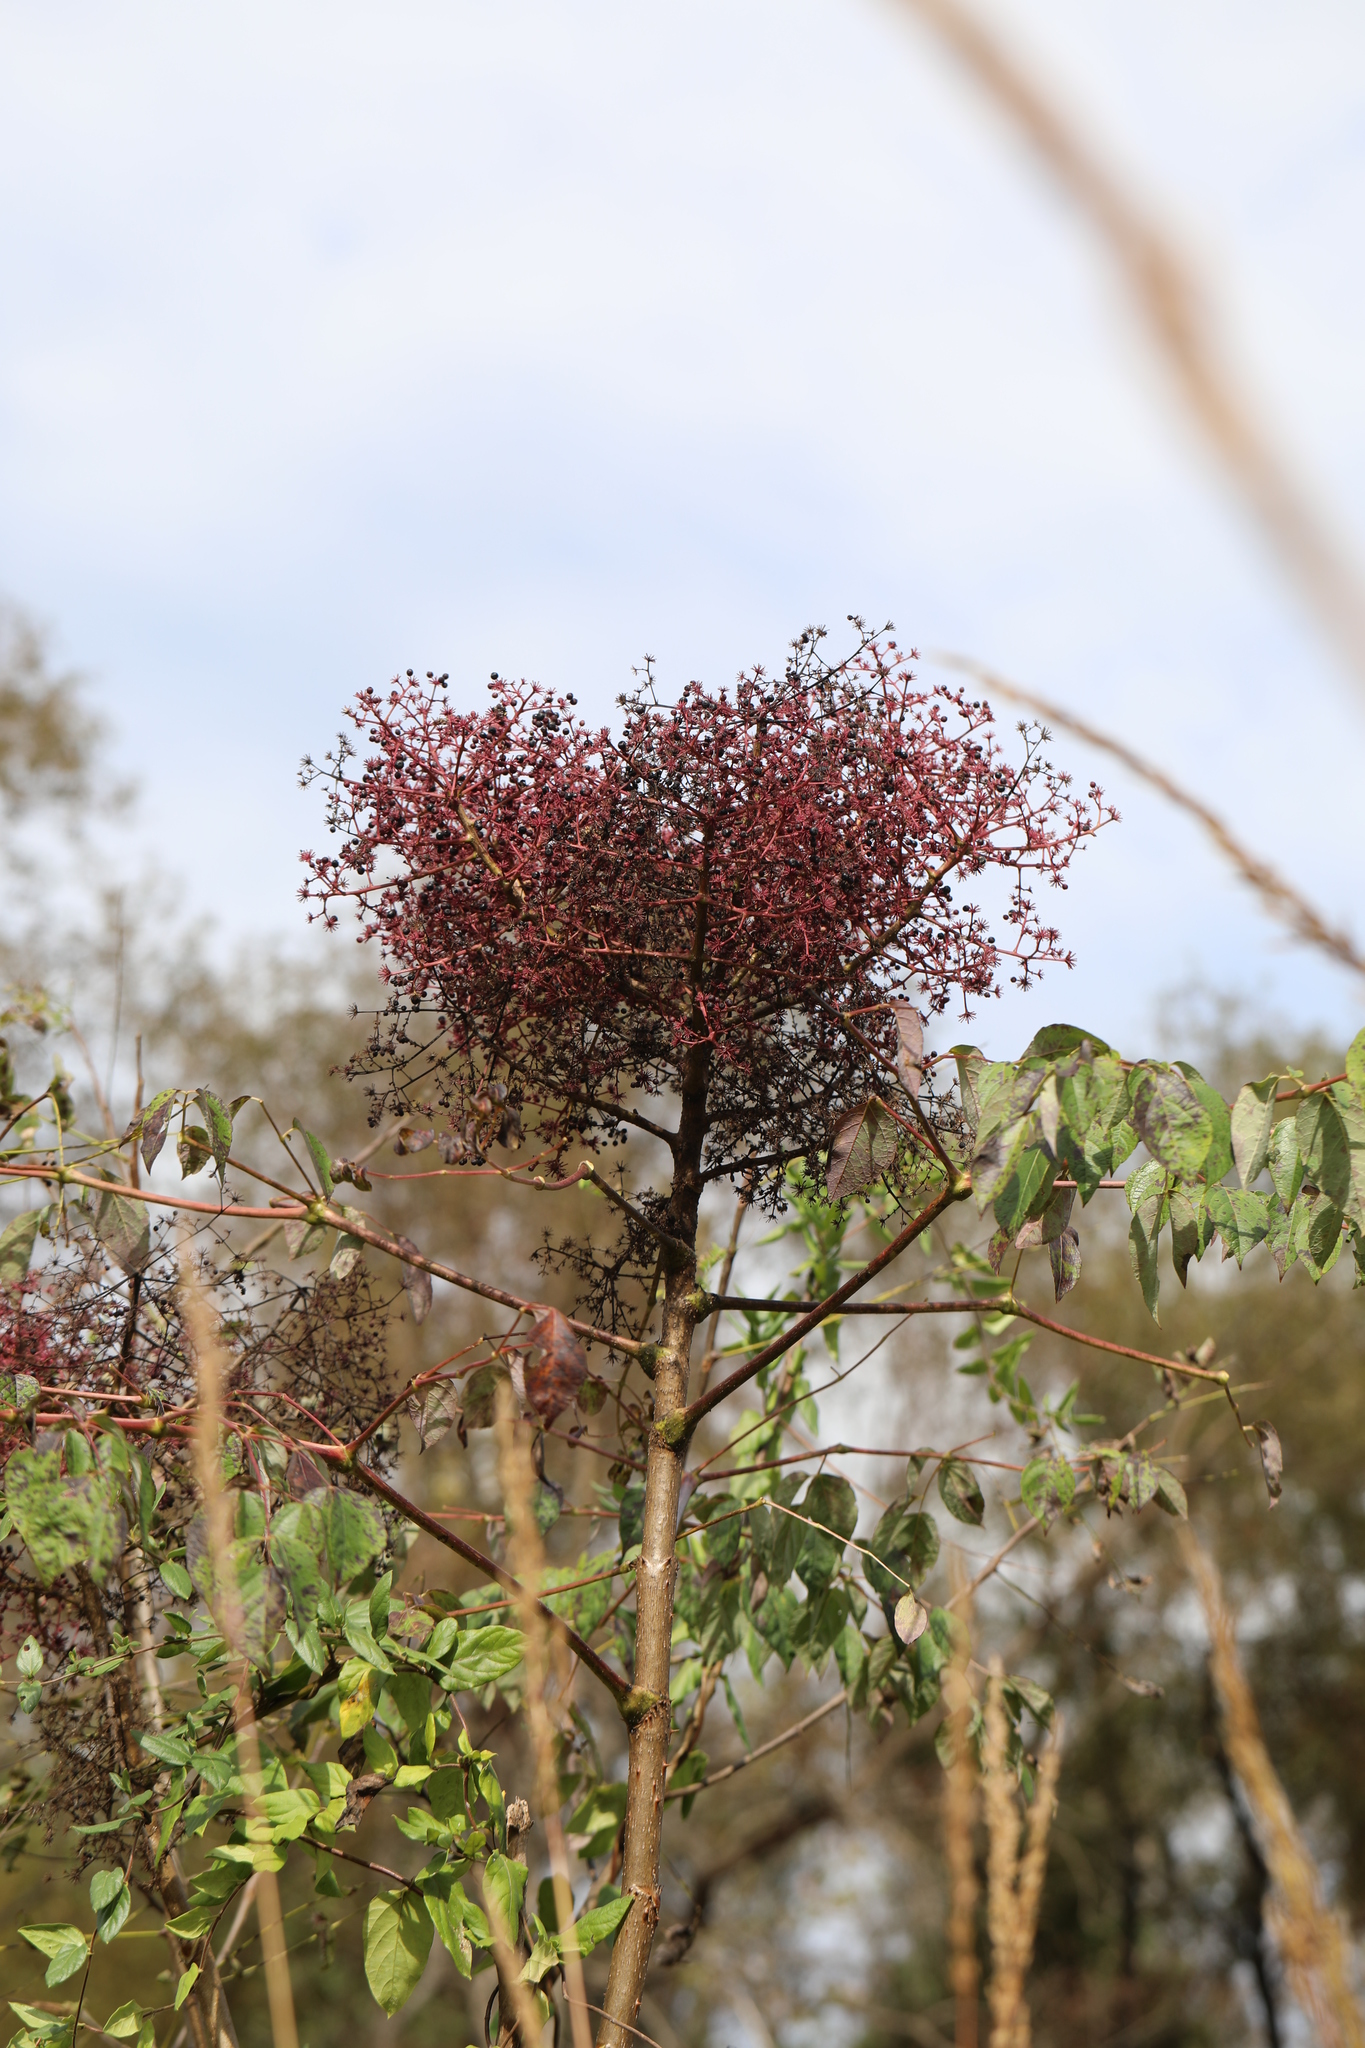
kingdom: Plantae
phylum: Tracheophyta
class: Magnoliopsida
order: Apiales
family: Araliaceae
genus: Aralia
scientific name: Aralia spinosa
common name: Hercules'-club
